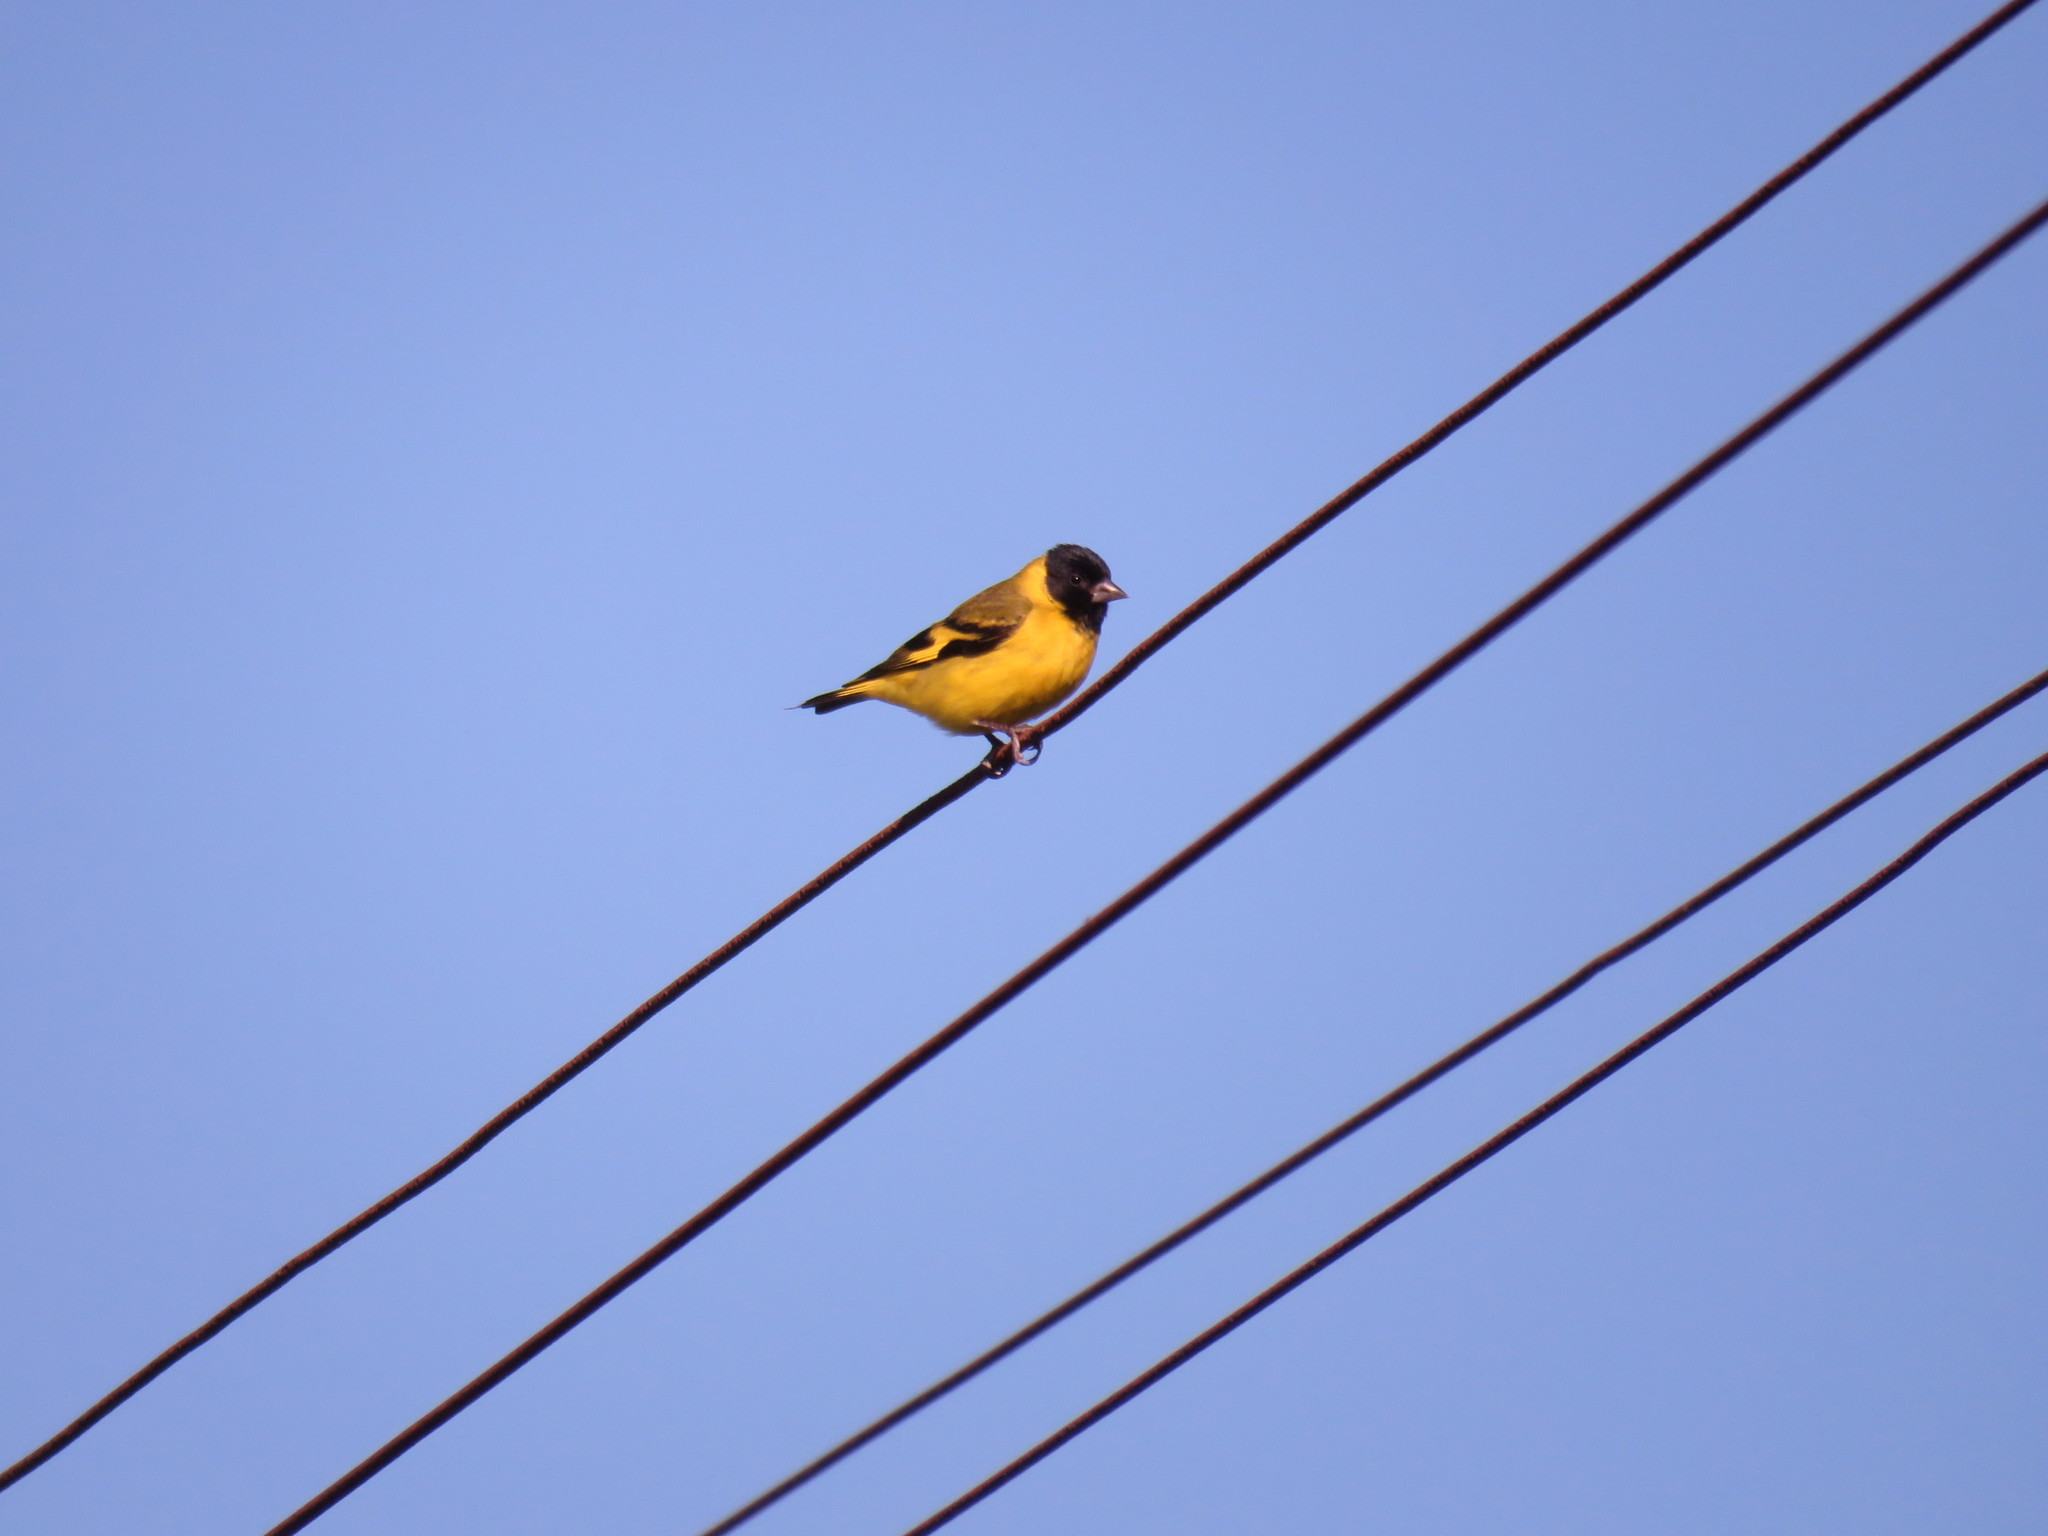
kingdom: Animalia
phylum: Chordata
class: Aves
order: Passeriformes
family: Fringillidae
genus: Spinus
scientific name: Spinus magellanicus
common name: Hooded siskin
